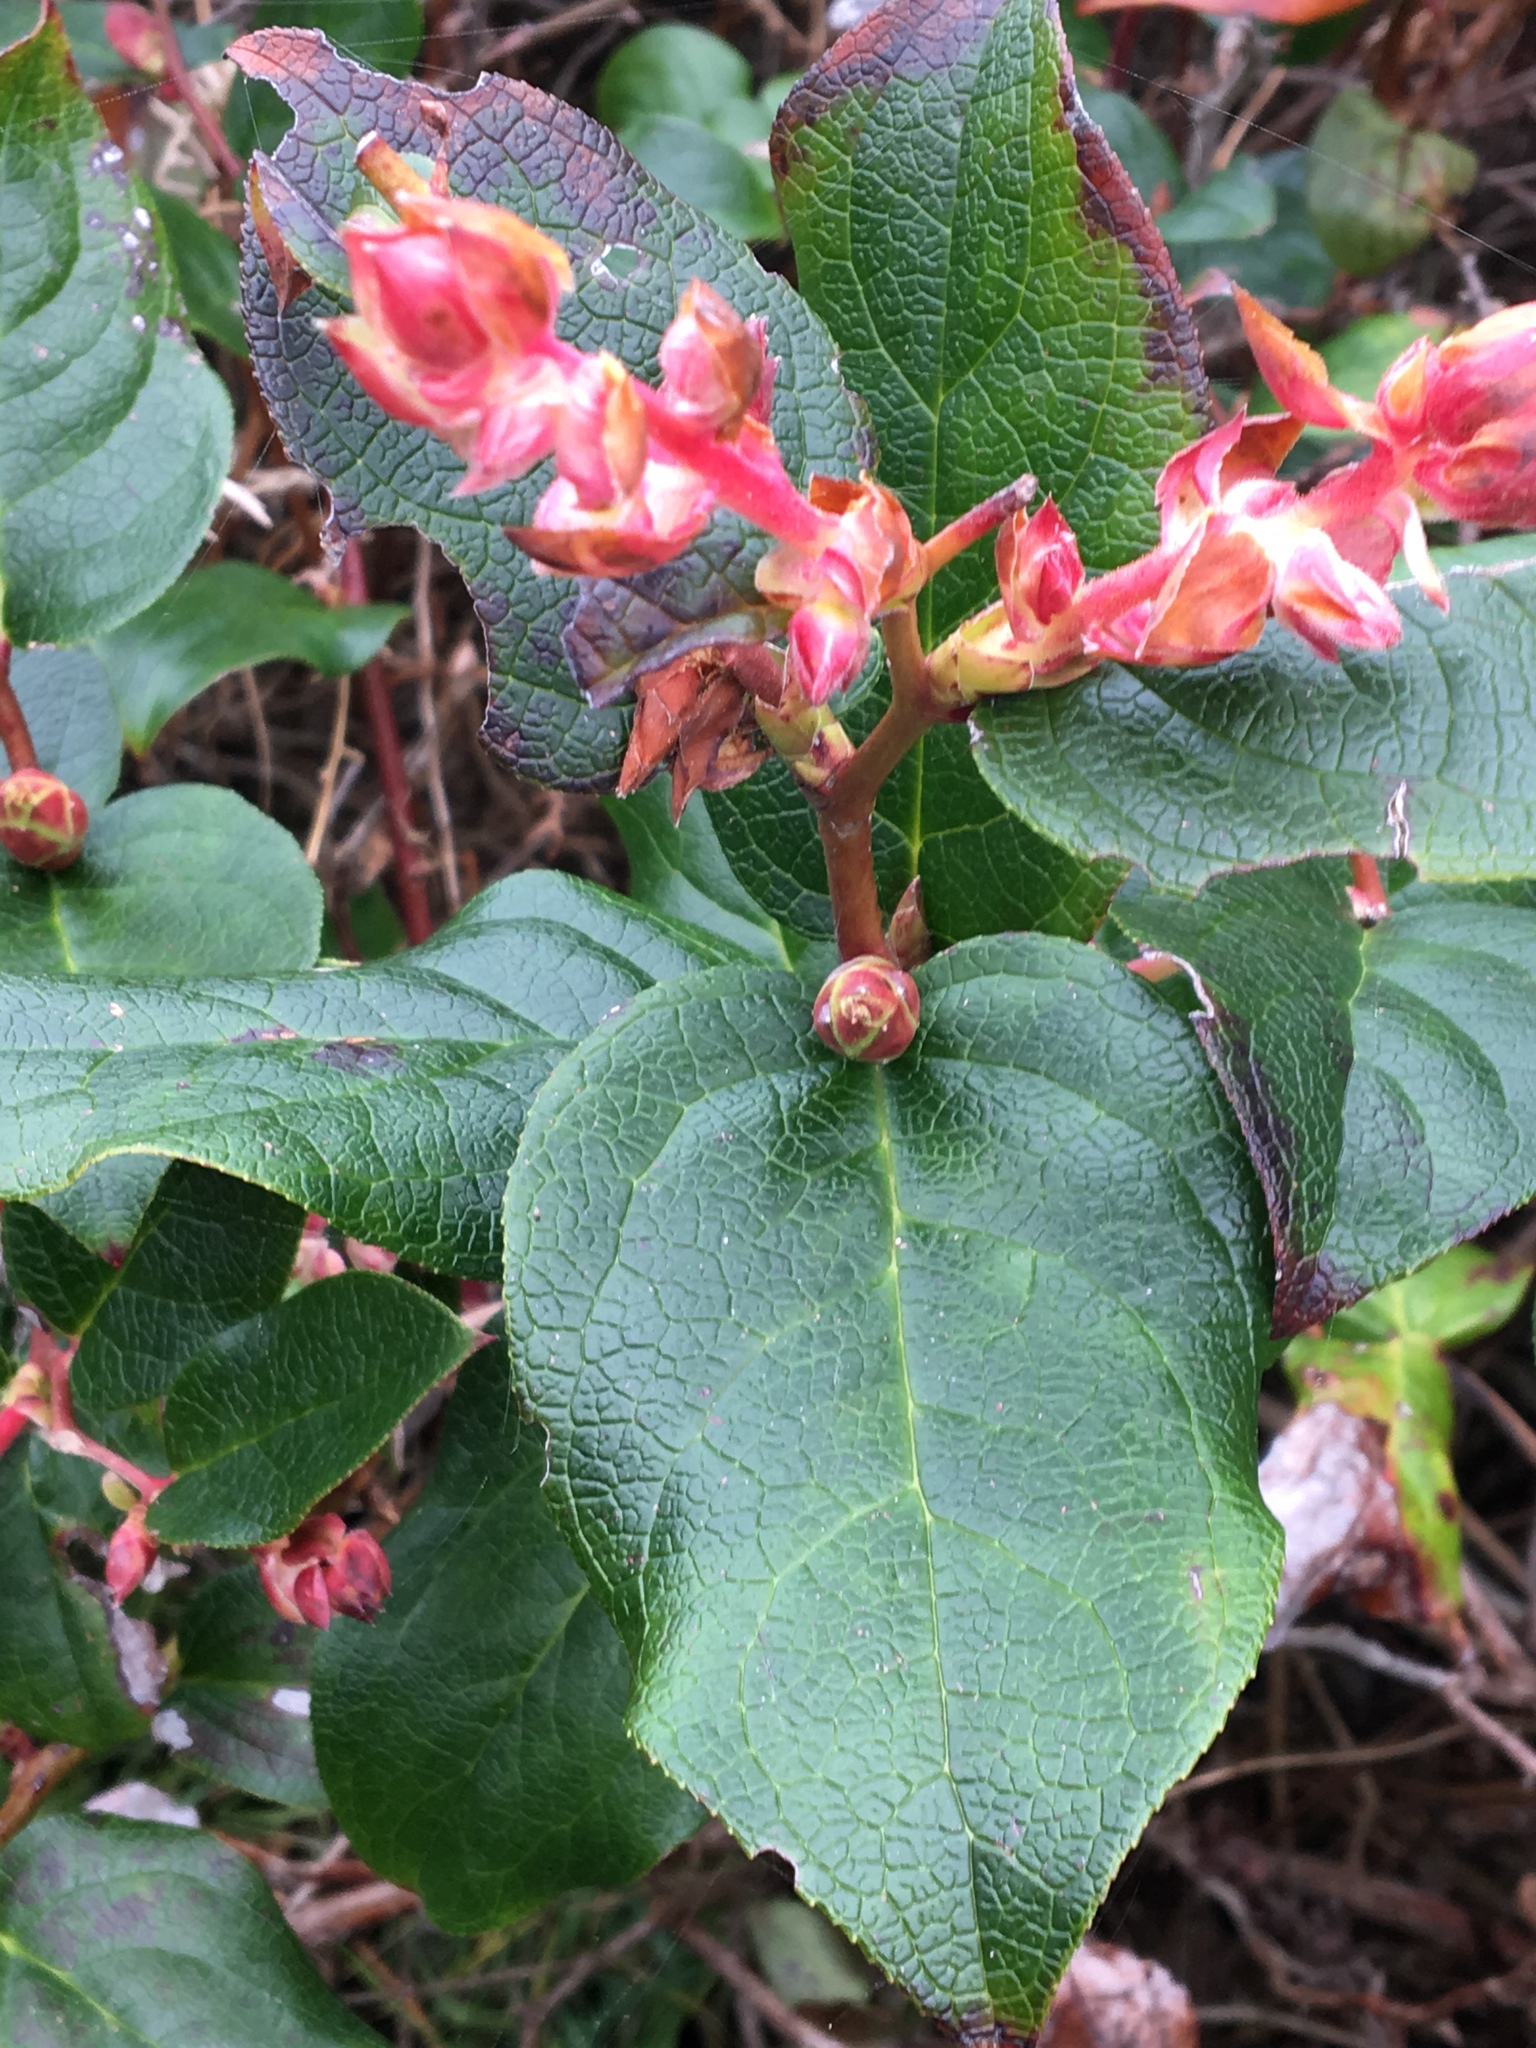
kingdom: Plantae
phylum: Tracheophyta
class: Magnoliopsida
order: Ericales
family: Ericaceae
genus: Gaultheria
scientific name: Gaultheria shallon
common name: Shallon
